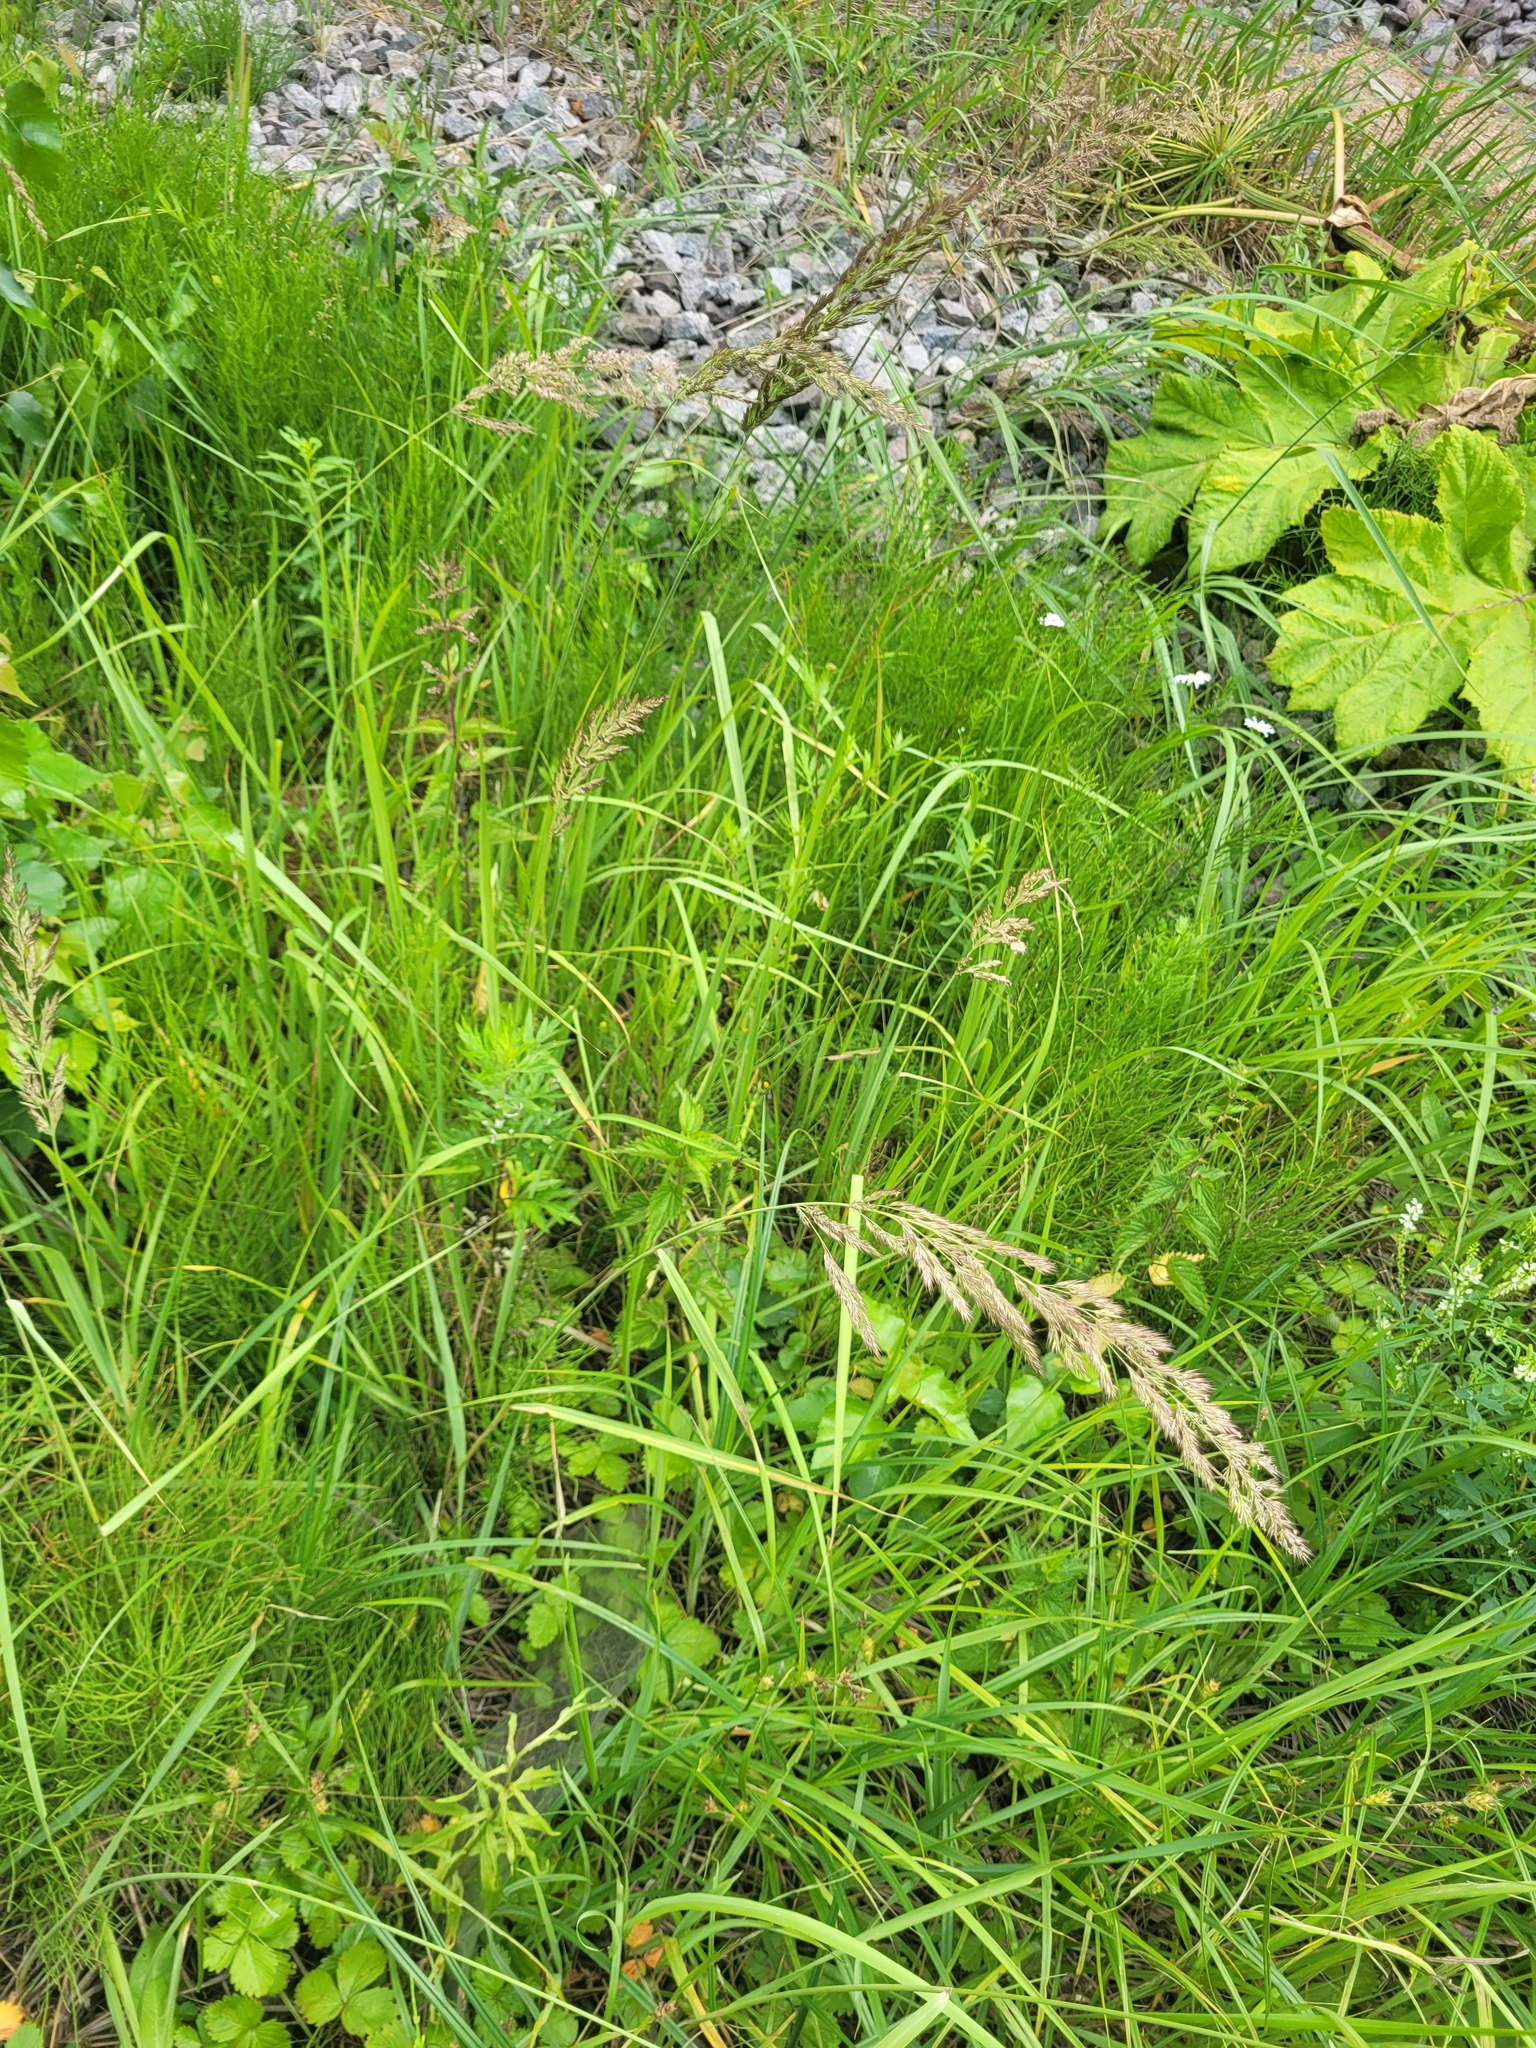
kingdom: Plantae
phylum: Tracheophyta
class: Liliopsida
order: Poales
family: Poaceae
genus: Calamagrostis
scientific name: Calamagrostis epigejos
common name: Wood small-reed
